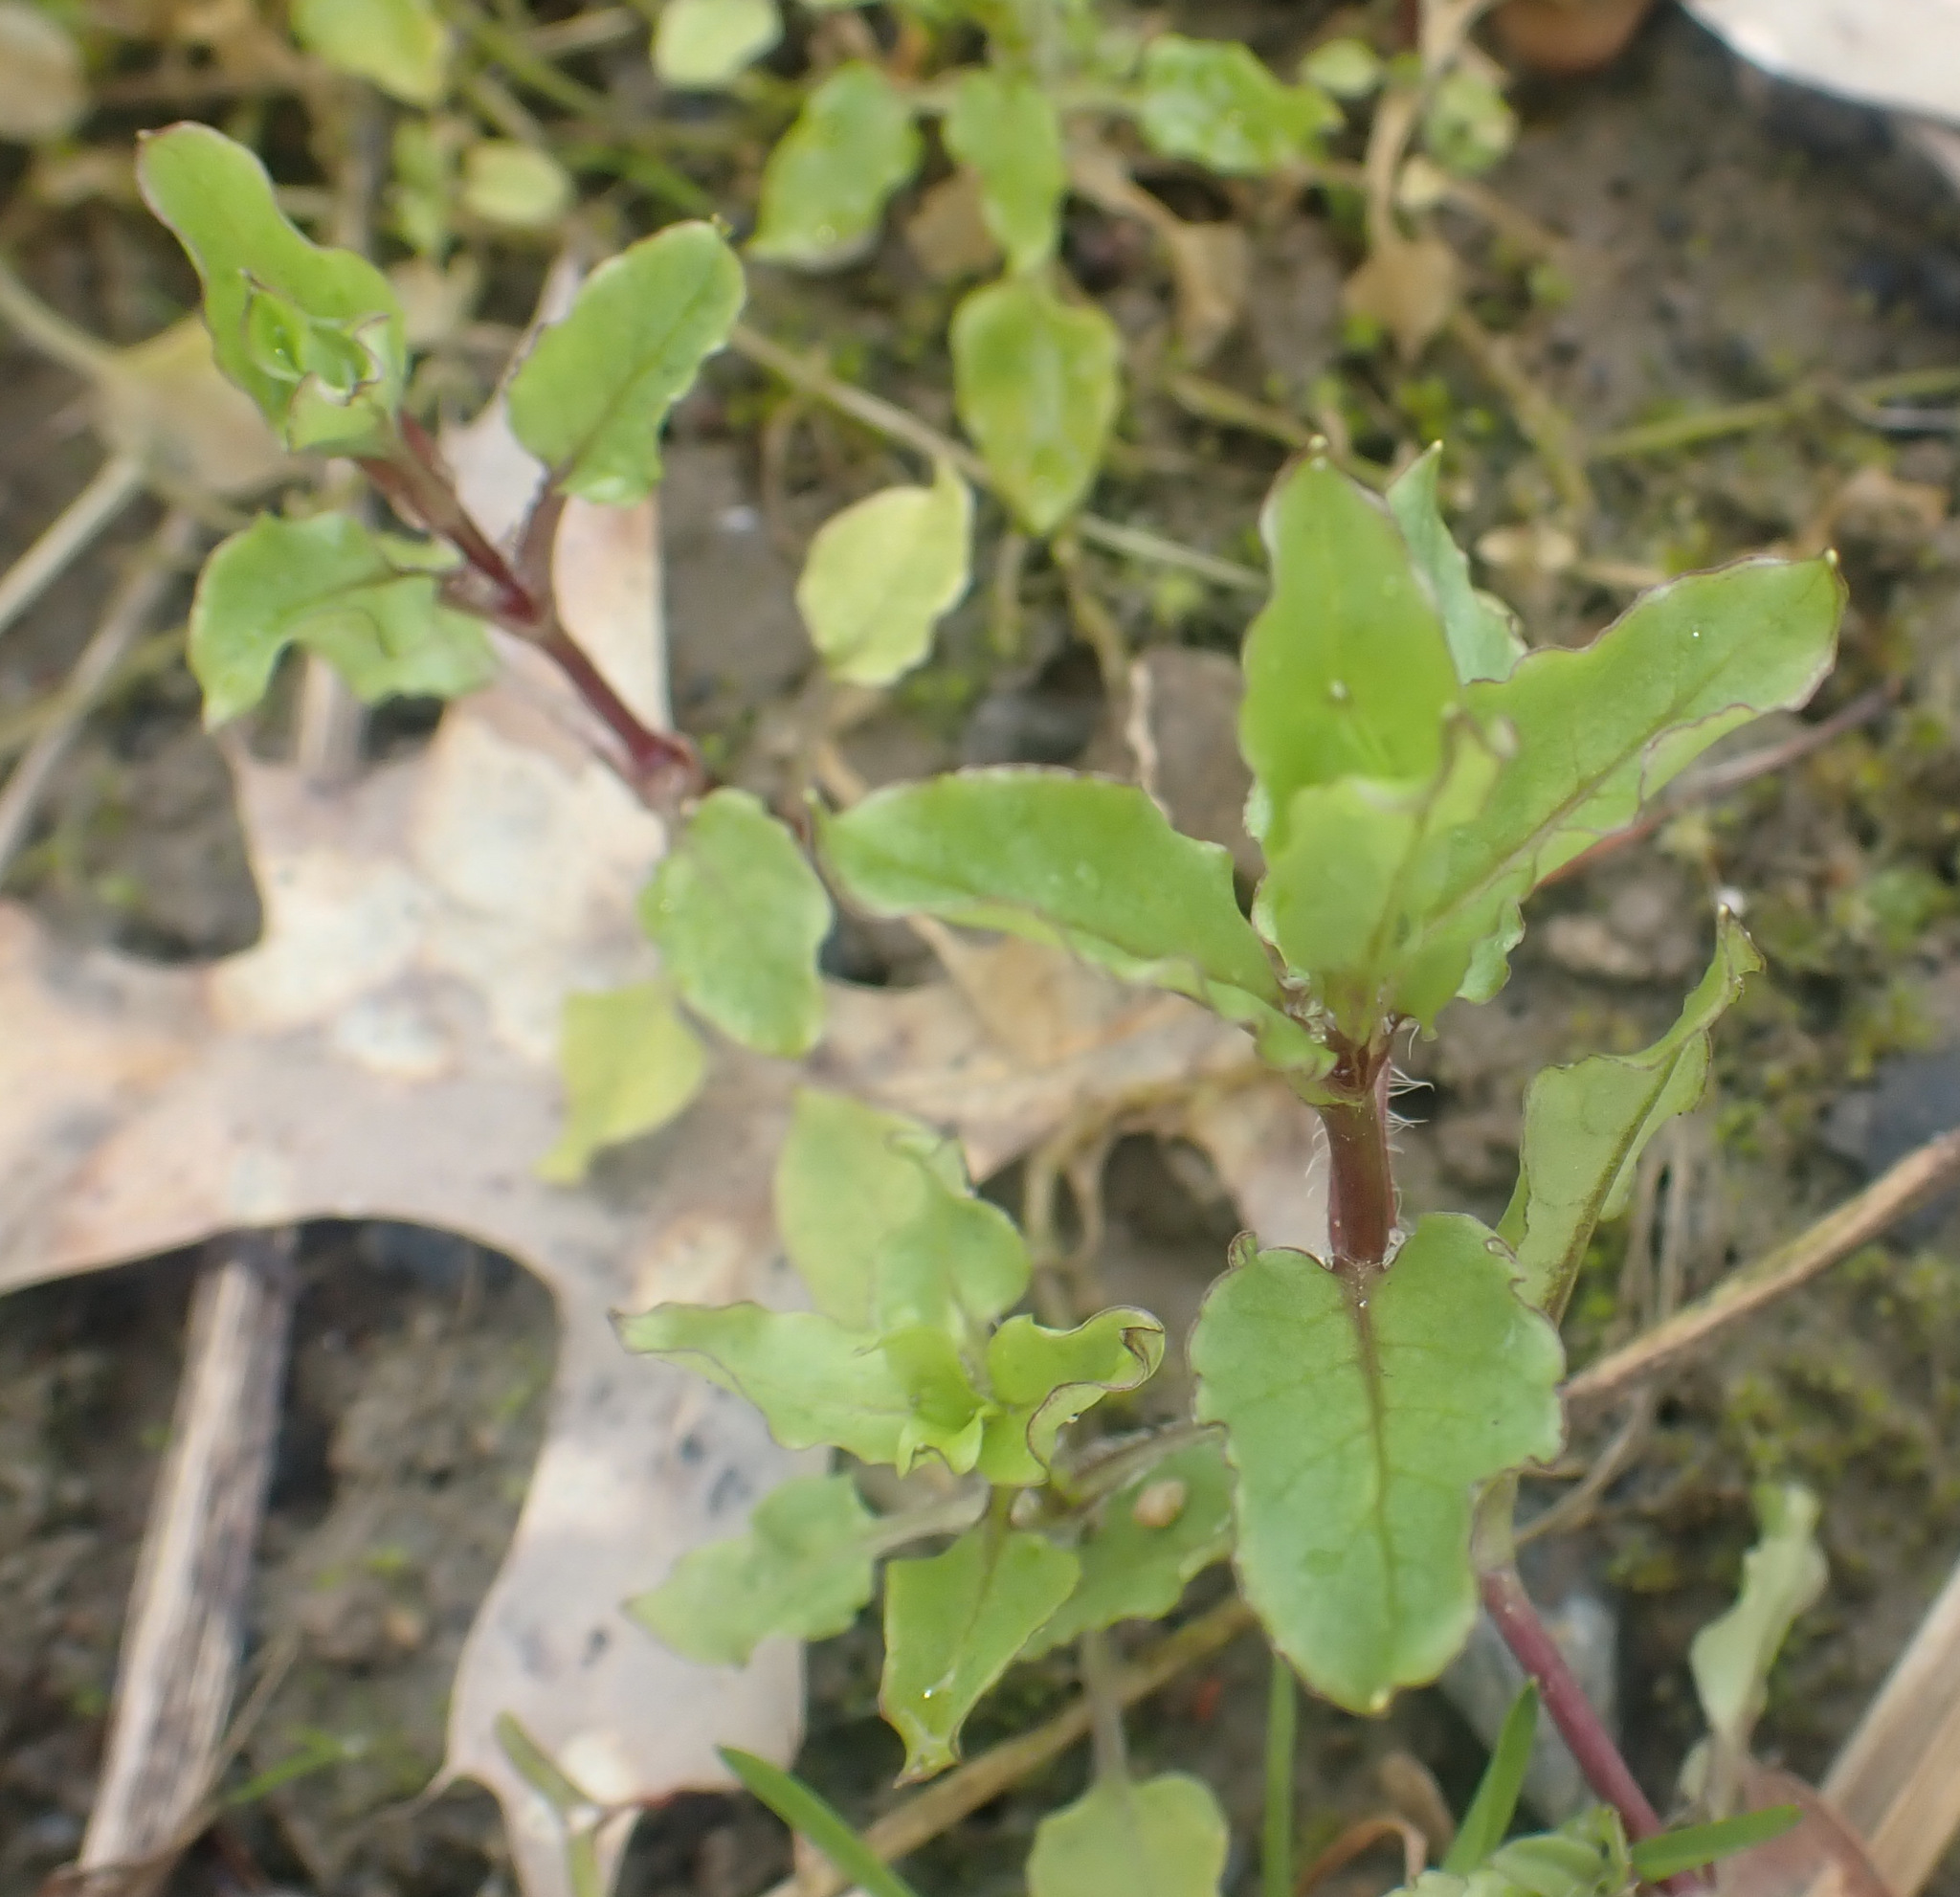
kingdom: Plantae
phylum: Tracheophyta
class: Magnoliopsida
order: Caryophyllales
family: Caryophyllaceae
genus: Stellaria
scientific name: Stellaria aquatica
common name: Water chickweed
